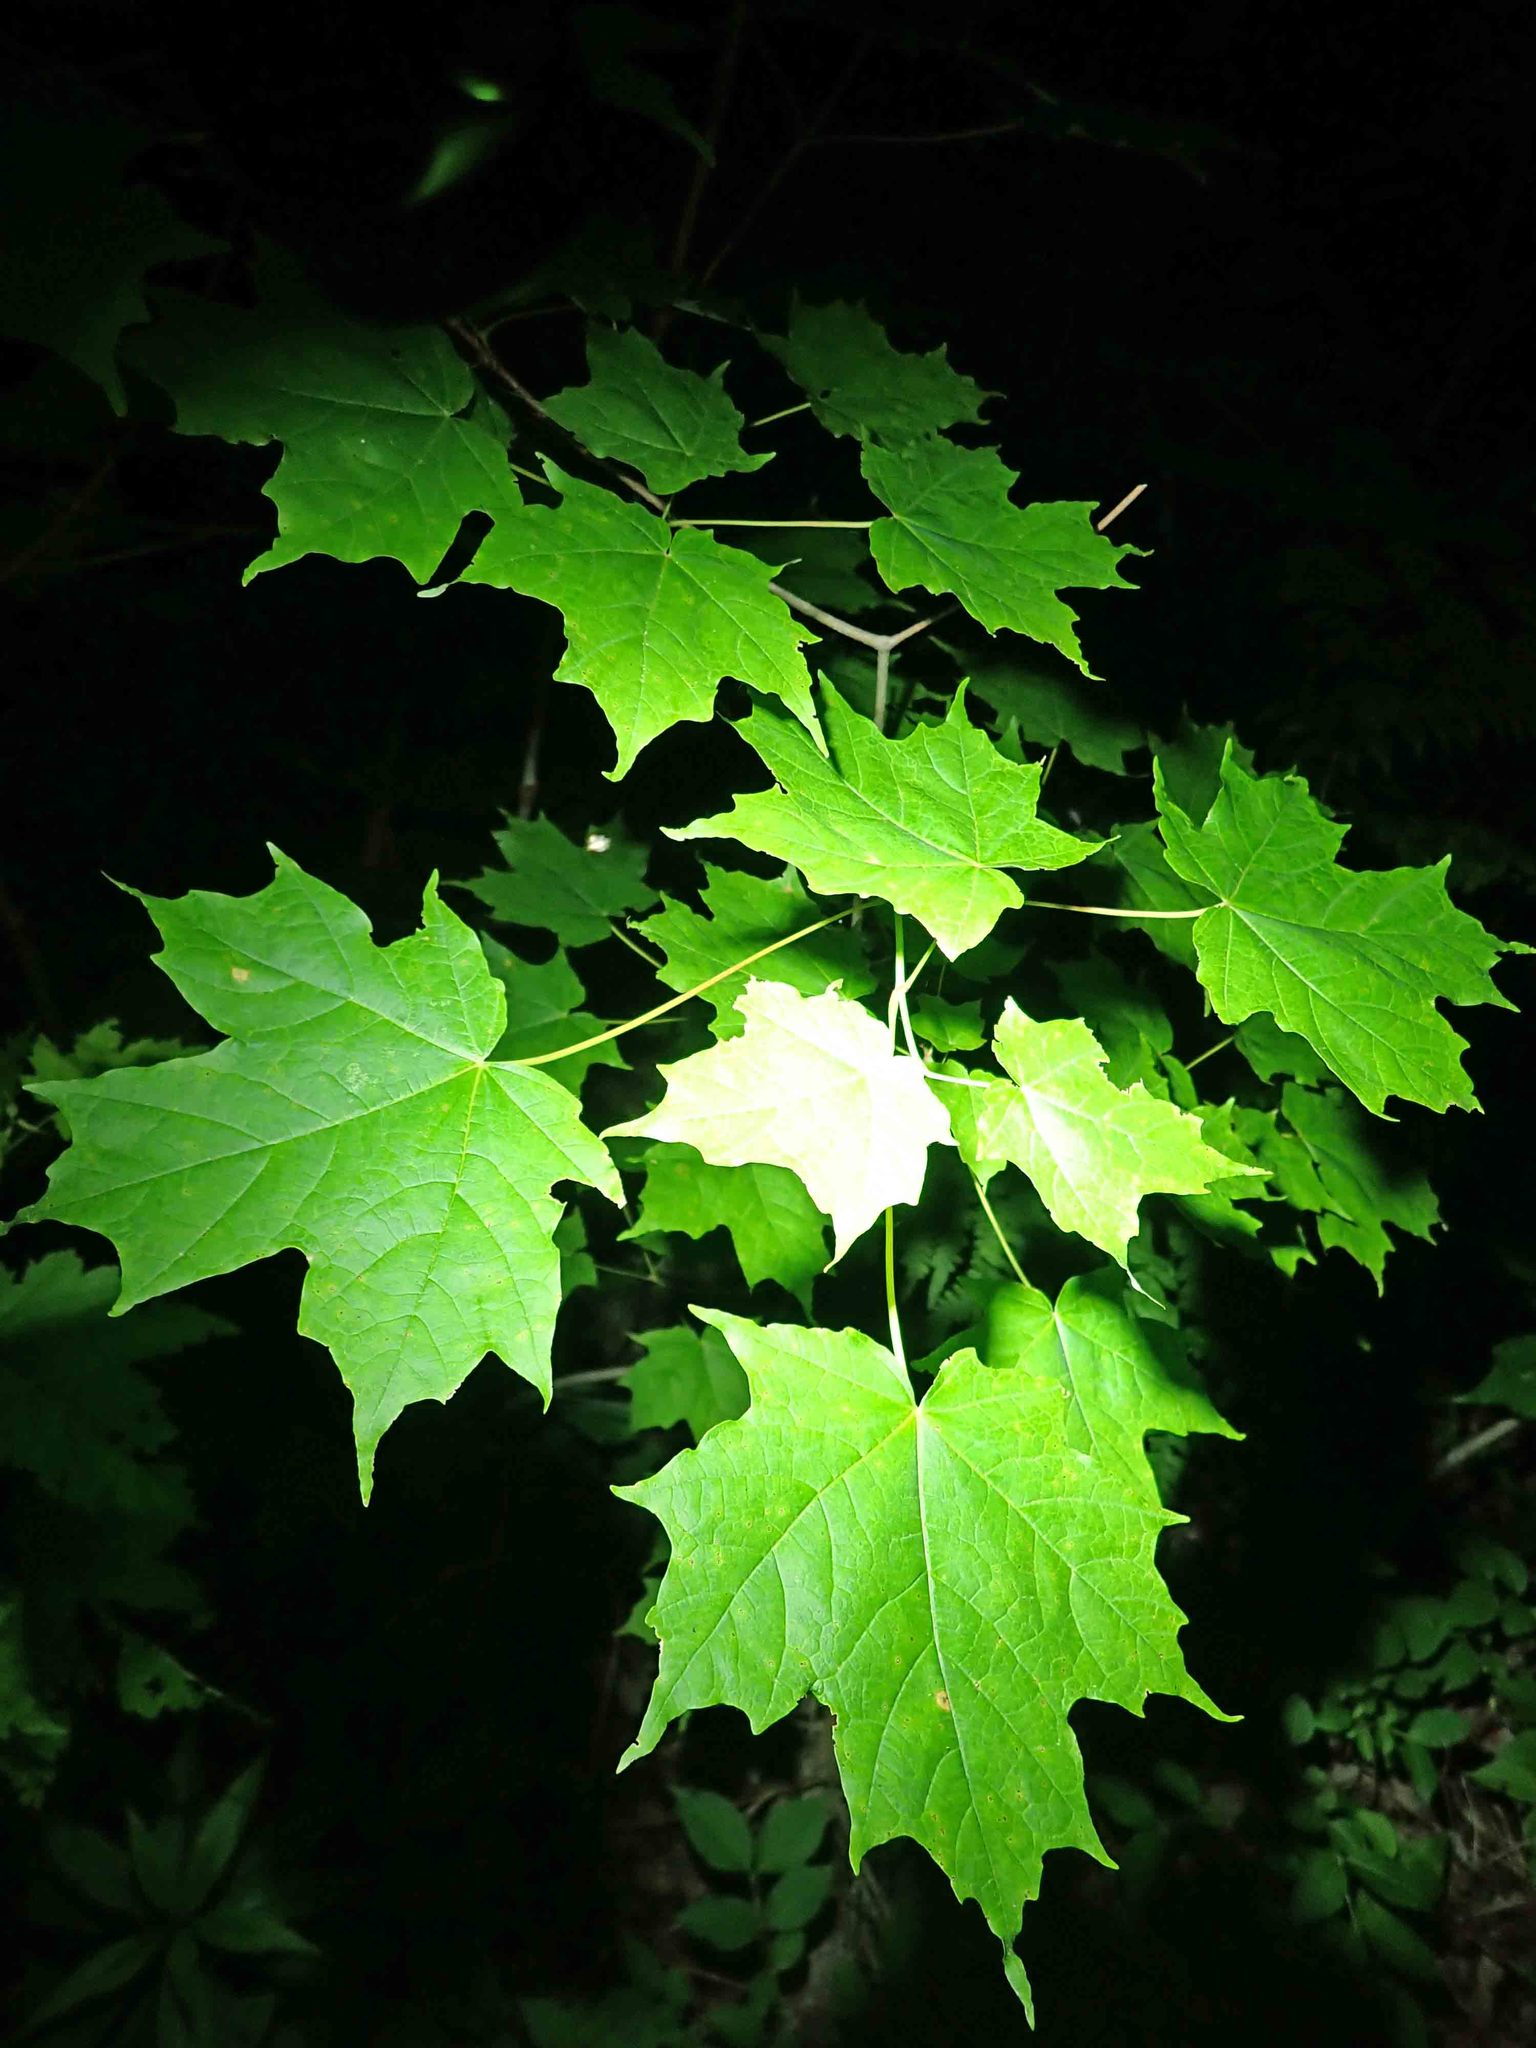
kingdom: Plantae
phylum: Tracheophyta
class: Magnoliopsida
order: Sapindales
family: Sapindaceae
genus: Acer
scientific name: Acer saccharum
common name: Sugar maple
